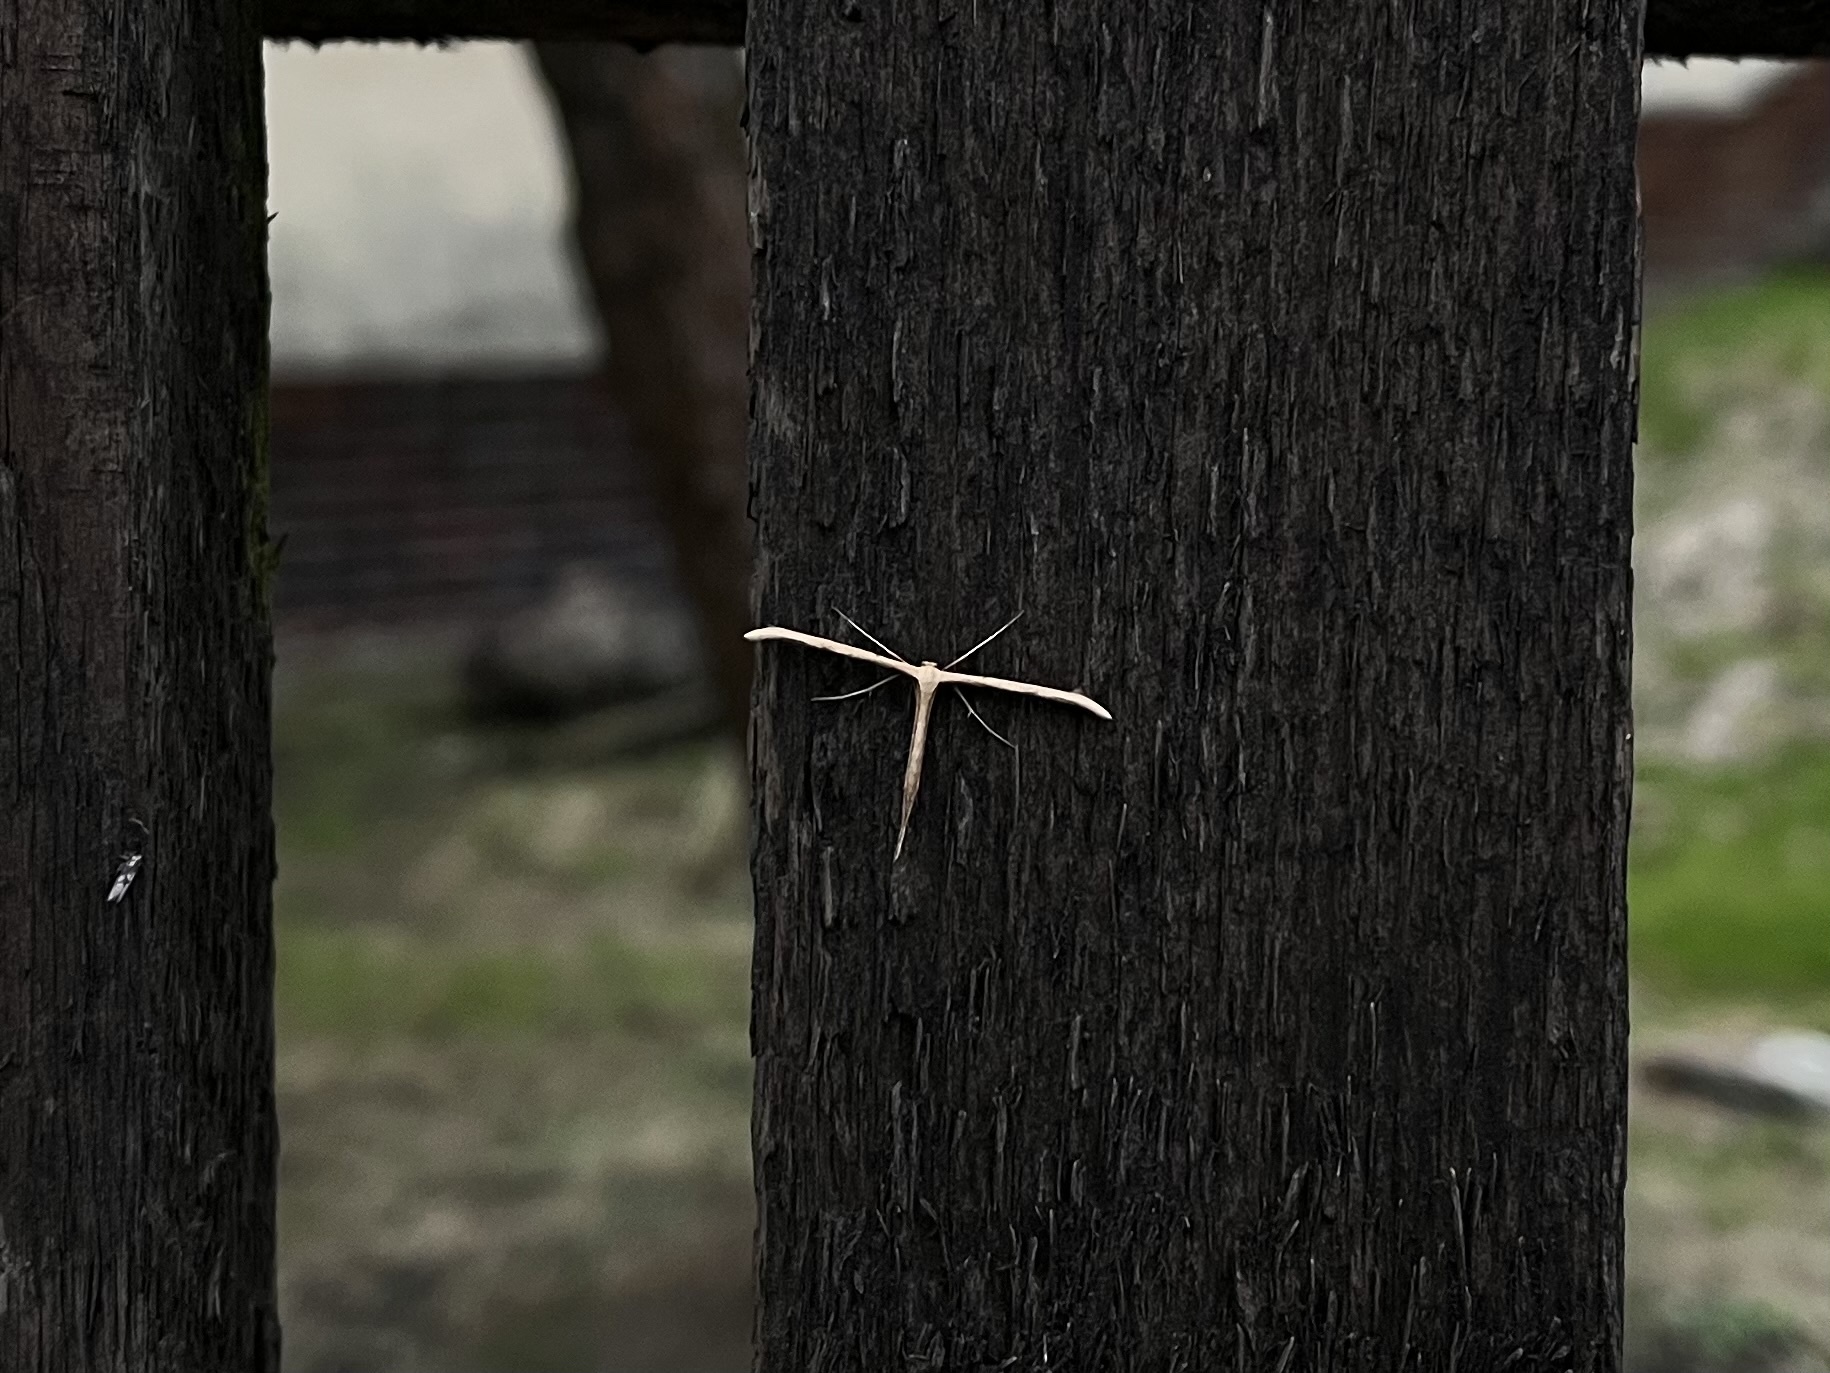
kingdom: Animalia
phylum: Arthropoda
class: Insecta
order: Lepidoptera
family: Pterophoridae
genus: Emmelina
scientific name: Emmelina monodactyla
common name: Common plume
